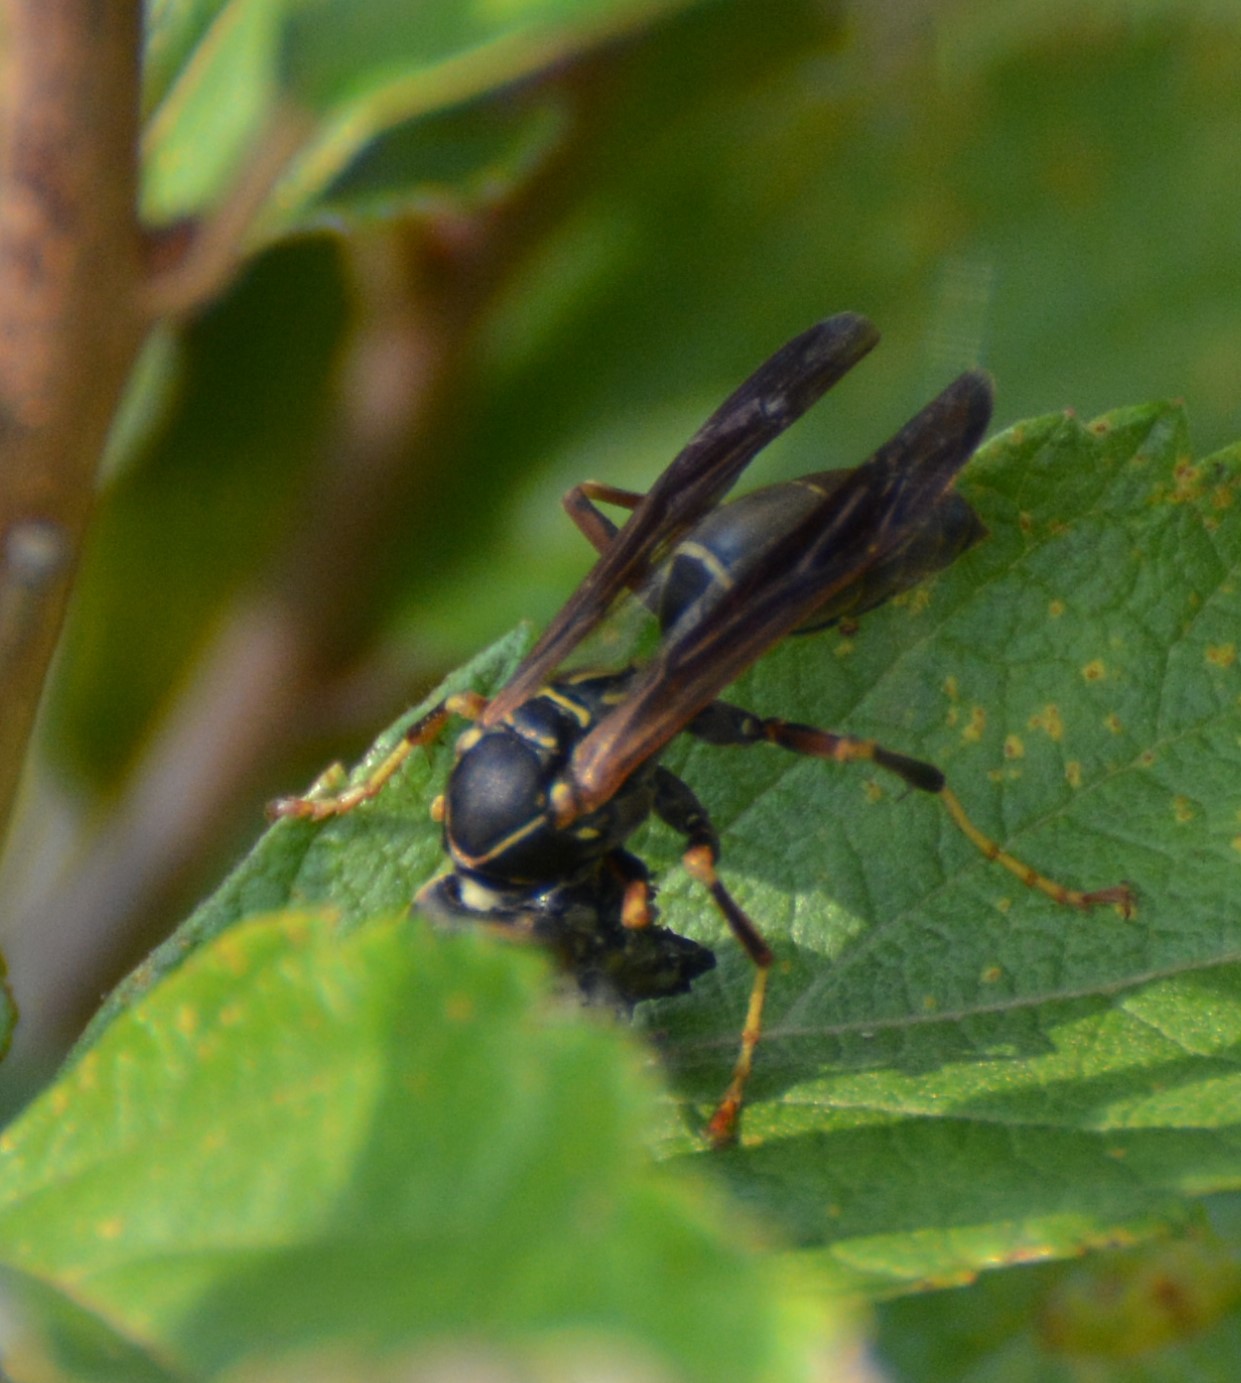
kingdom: Animalia
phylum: Arthropoda
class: Insecta
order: Hymenoptera
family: Eumenidae
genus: Polistes
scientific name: Polistes fuscatus
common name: Dark paper wasp
